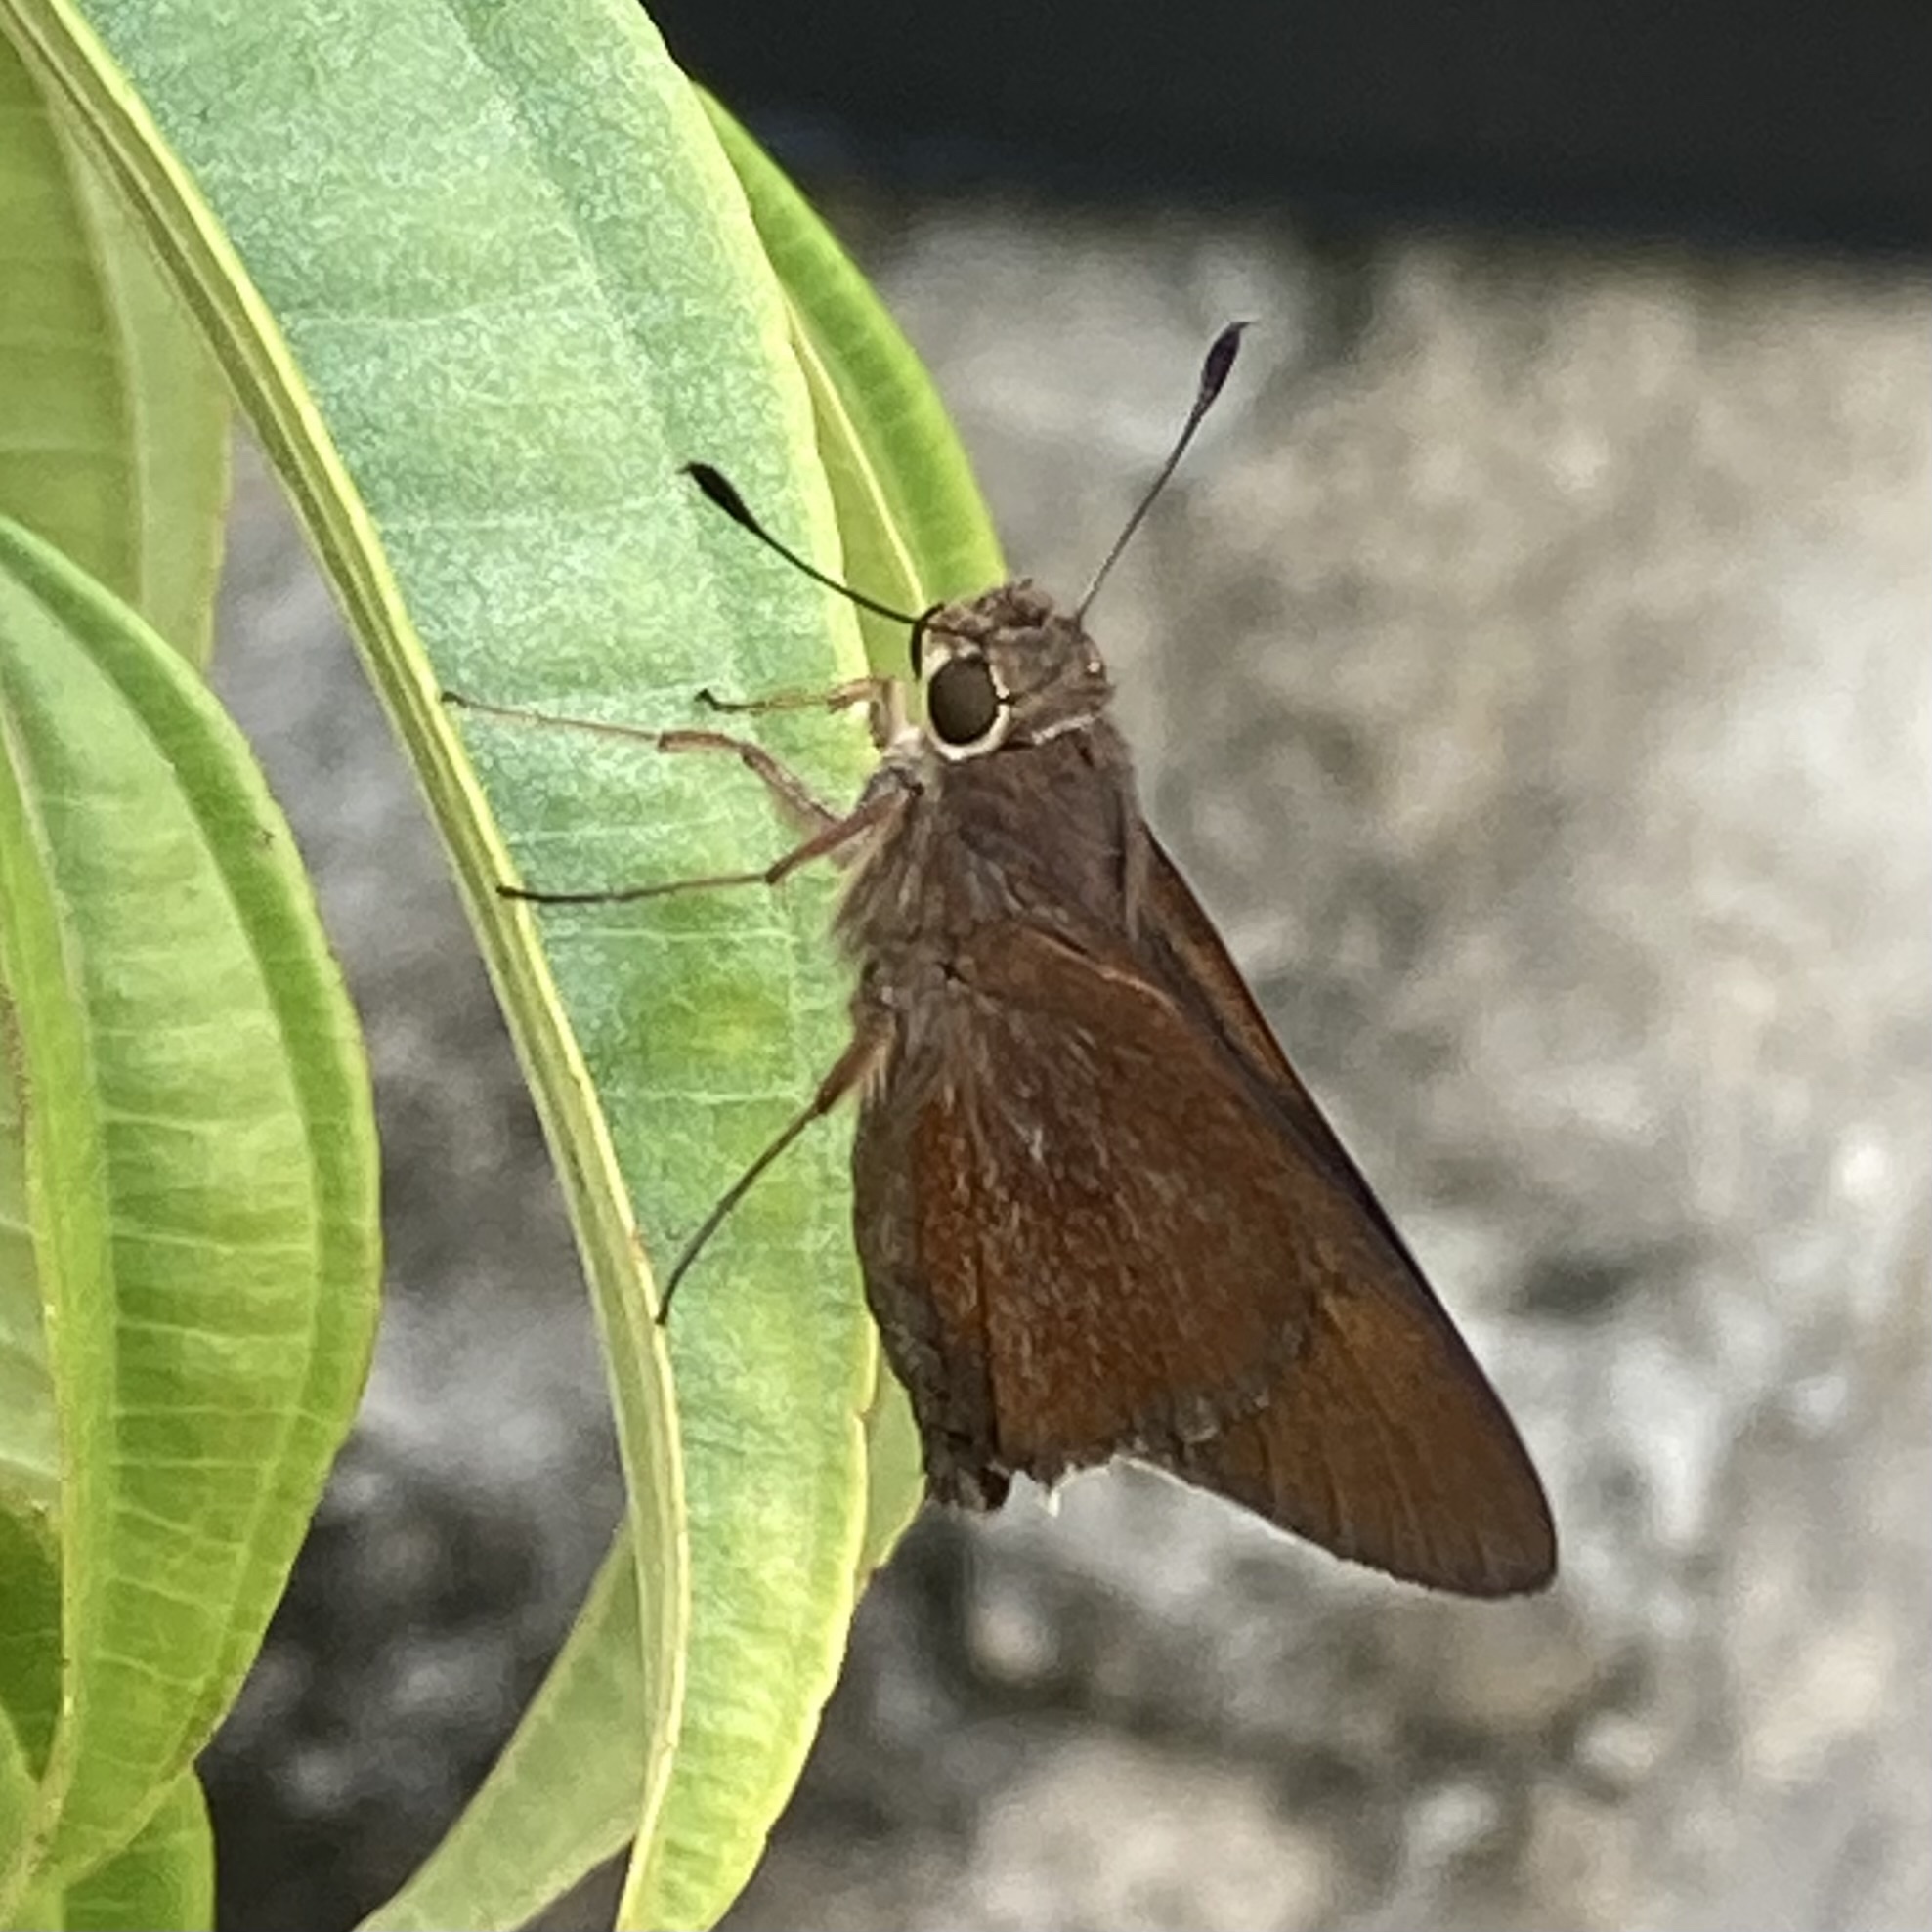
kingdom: Animalia
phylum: Arthropoda
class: Insecta
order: Lepidoptera
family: Hesperiidae
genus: Asbolis
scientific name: Asbolis capucinus
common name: Monk skipper
